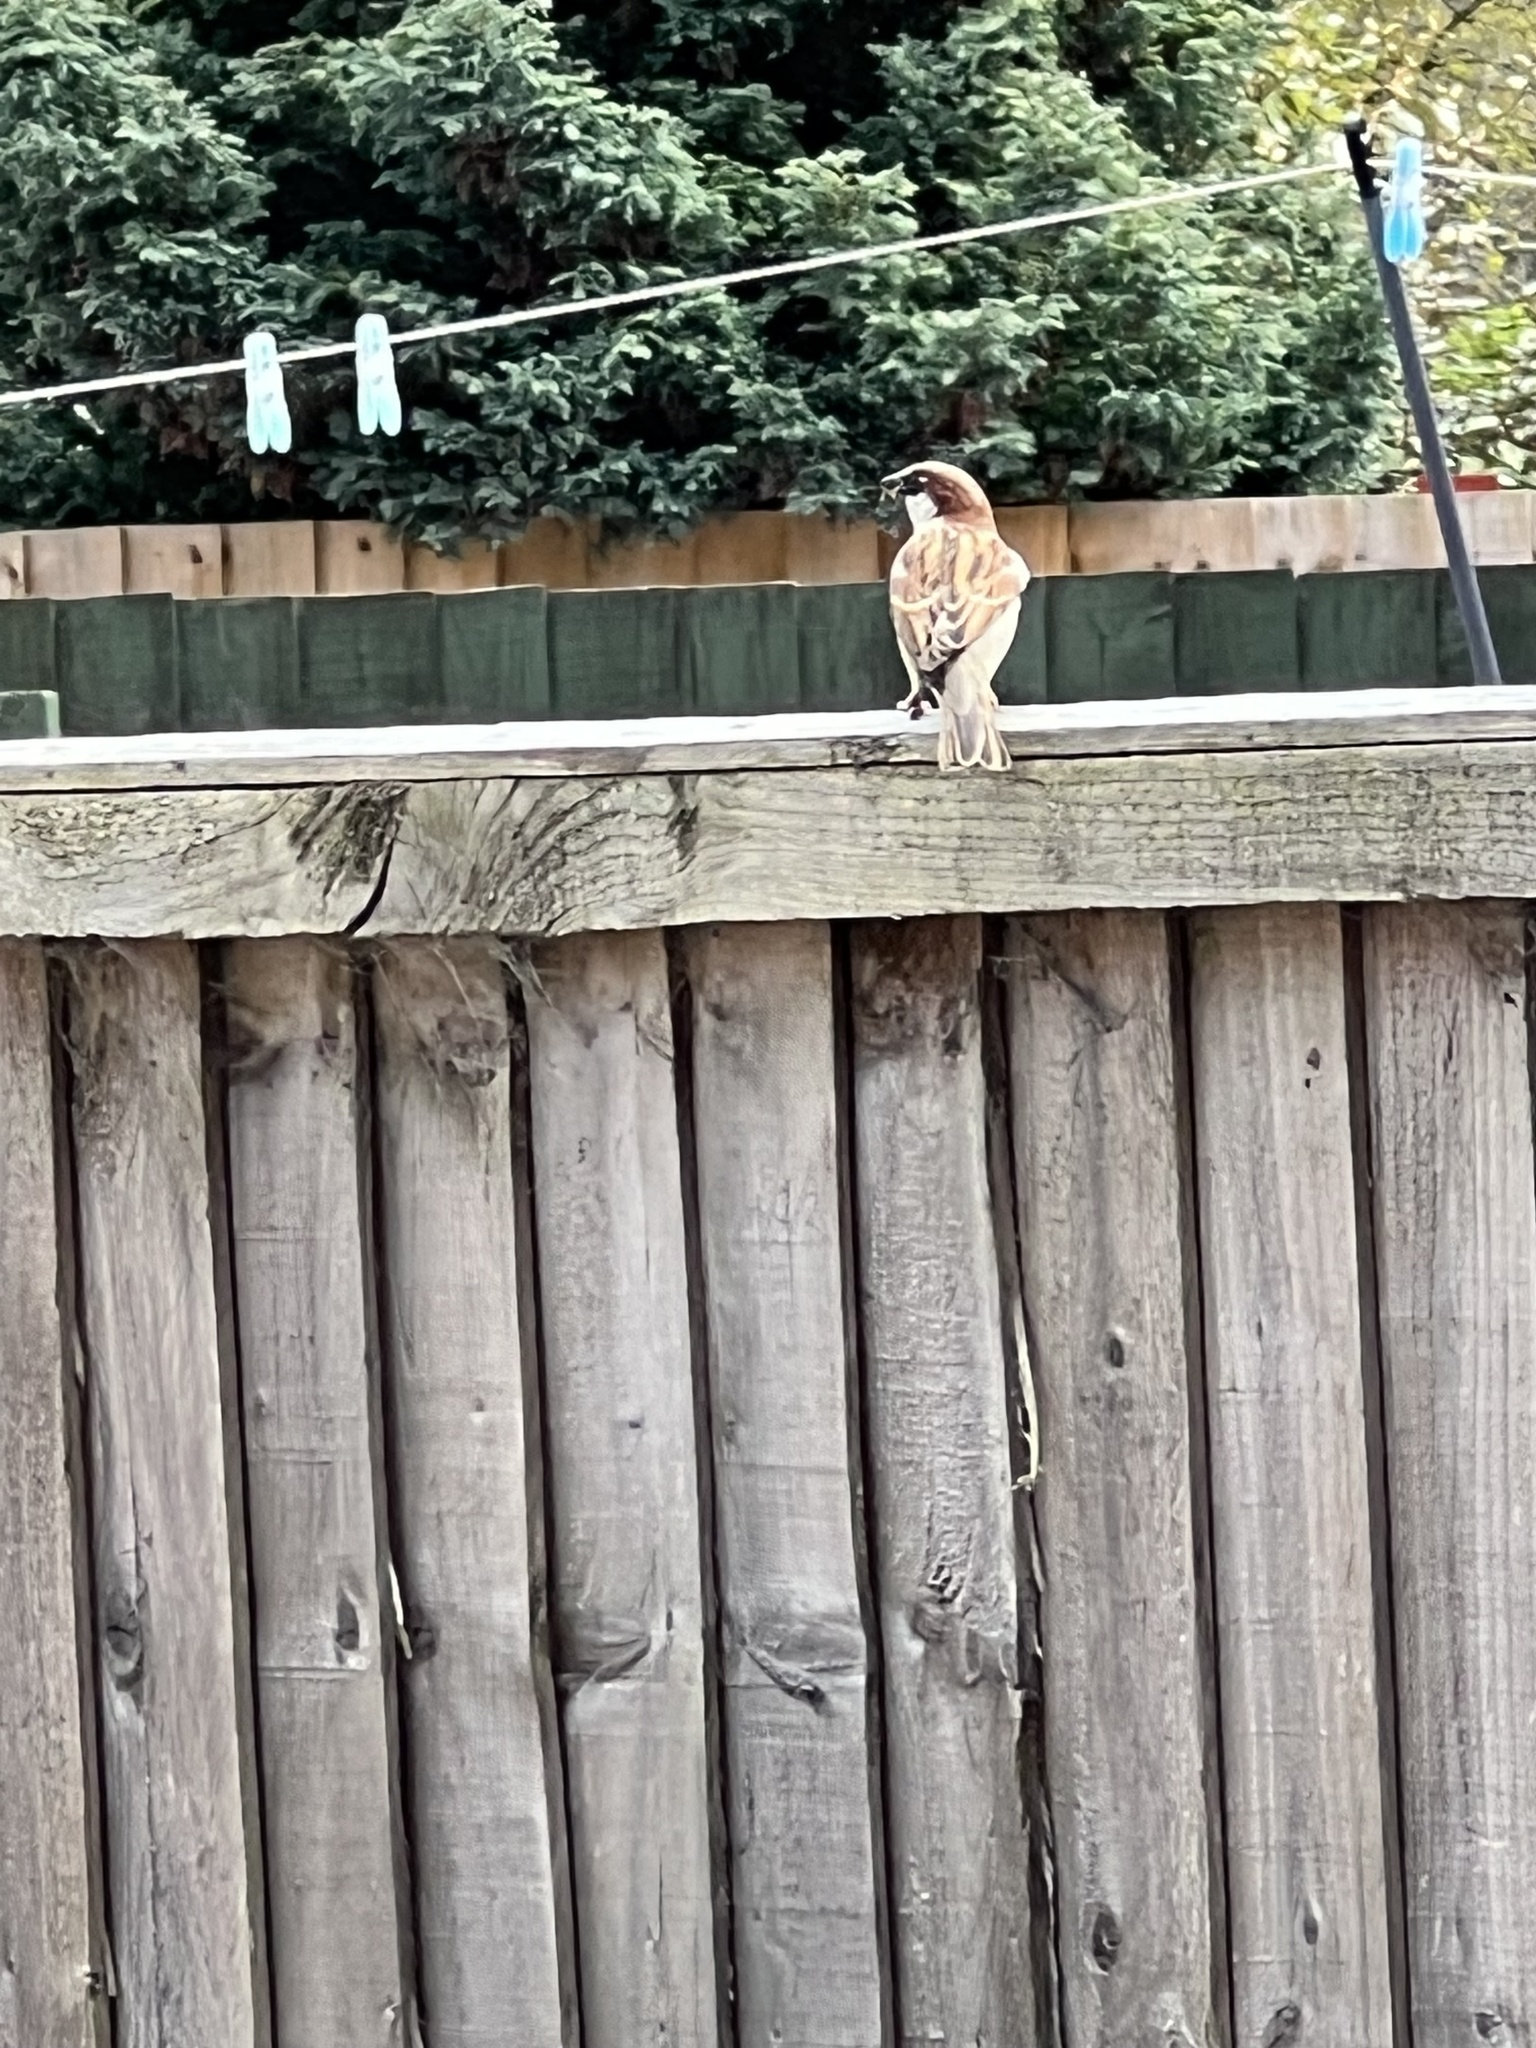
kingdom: Animalia
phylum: Chordata
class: Aves
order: Passeriformes
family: Passeridae
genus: Passer
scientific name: Passer domesticus
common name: House sparrow
